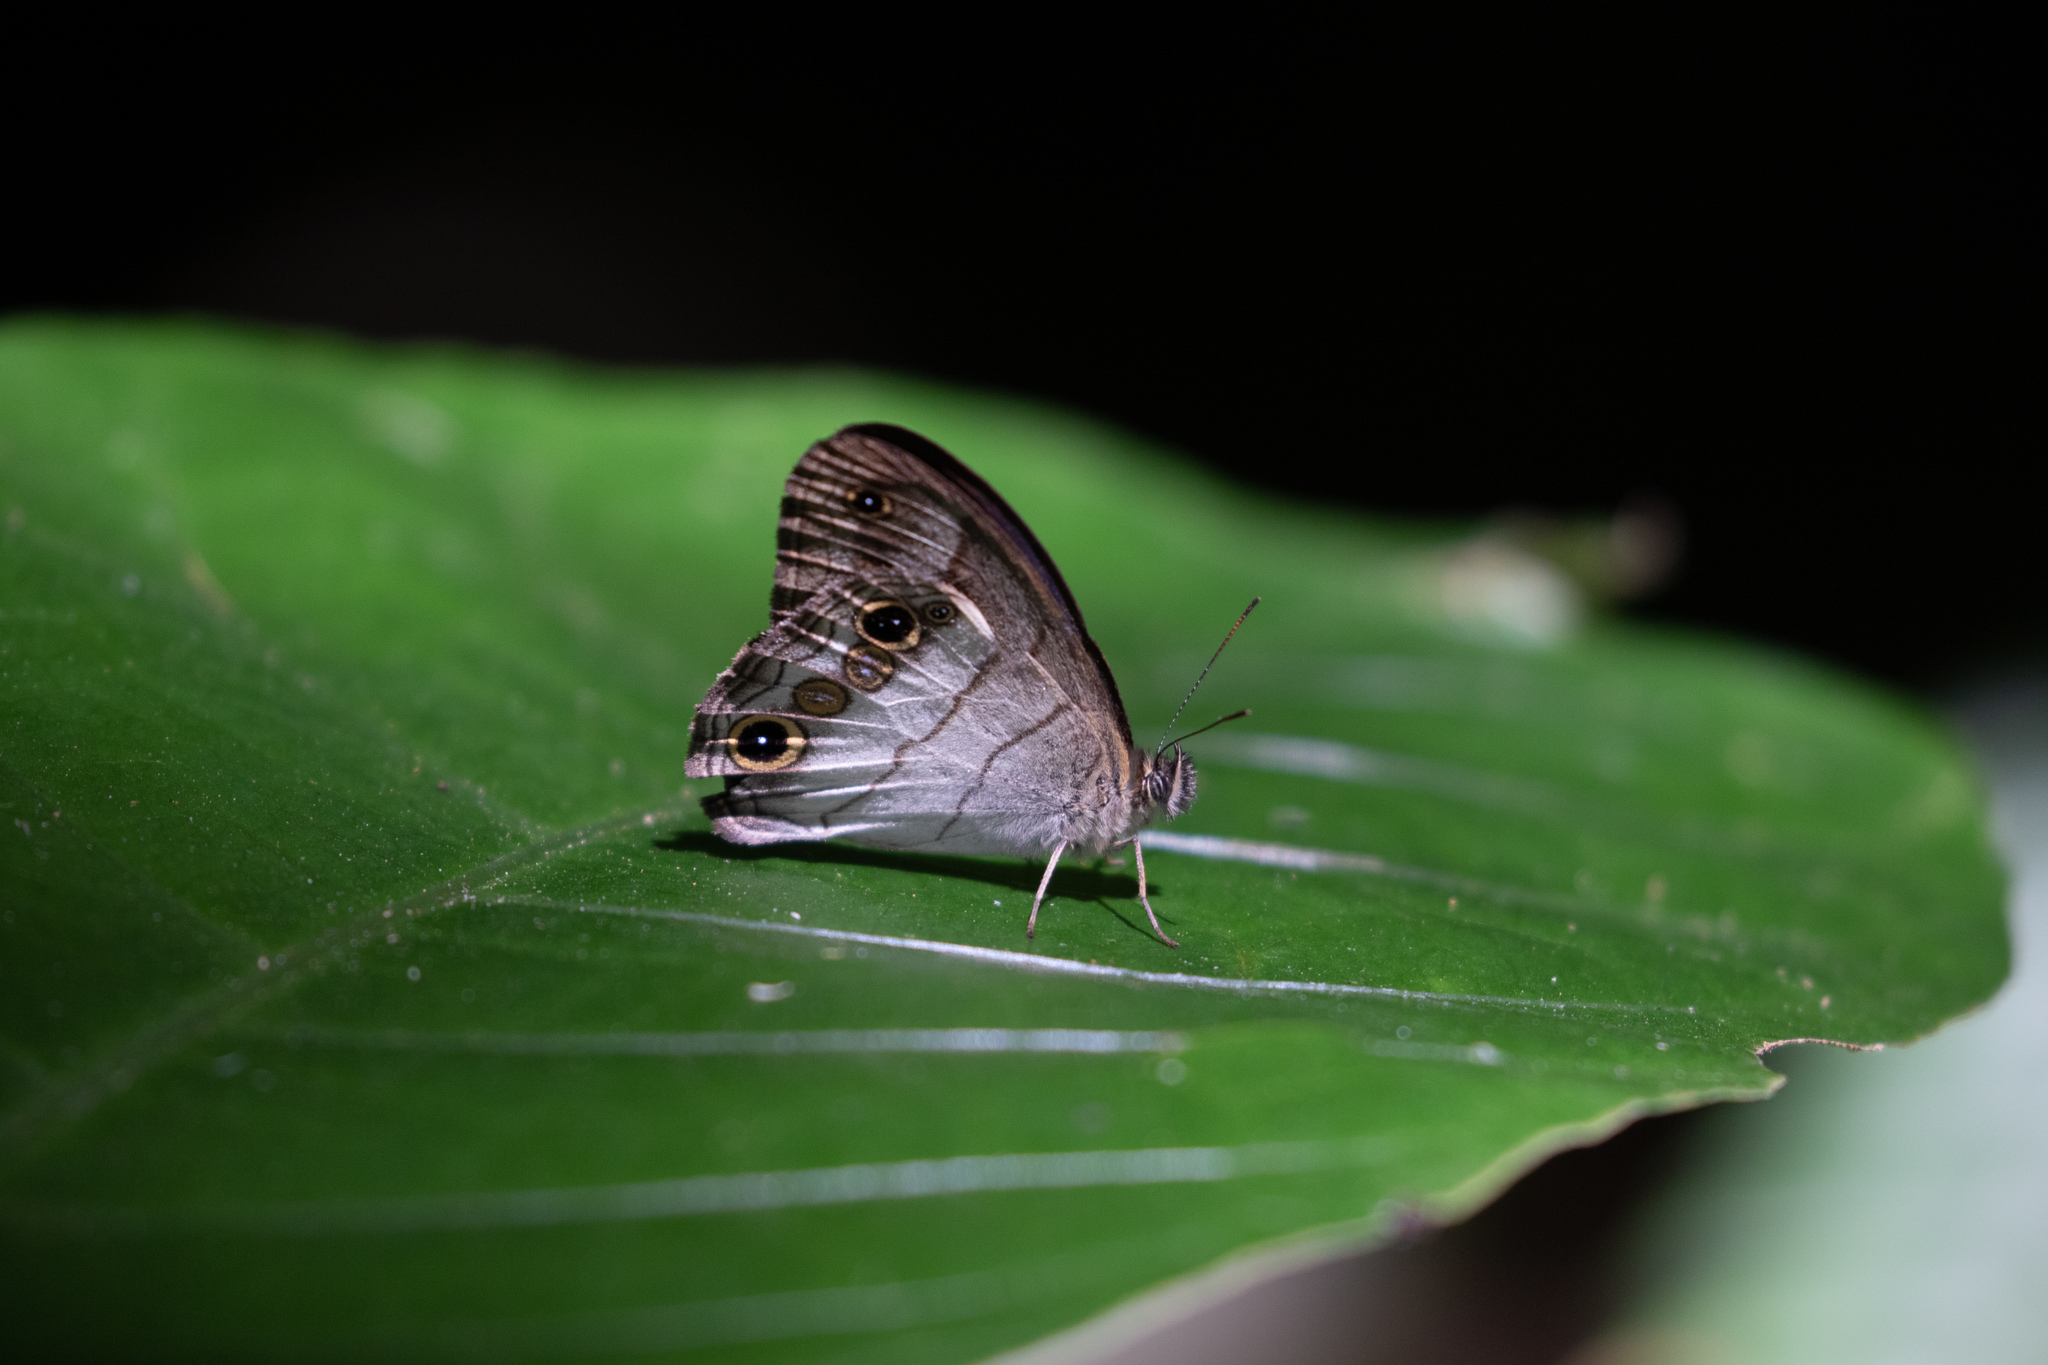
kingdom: Animalia
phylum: Arthropoda
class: Insecta
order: Lepidoptera
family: Nymphalidae
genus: Euptychoides
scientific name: Euptychoides saturnus
